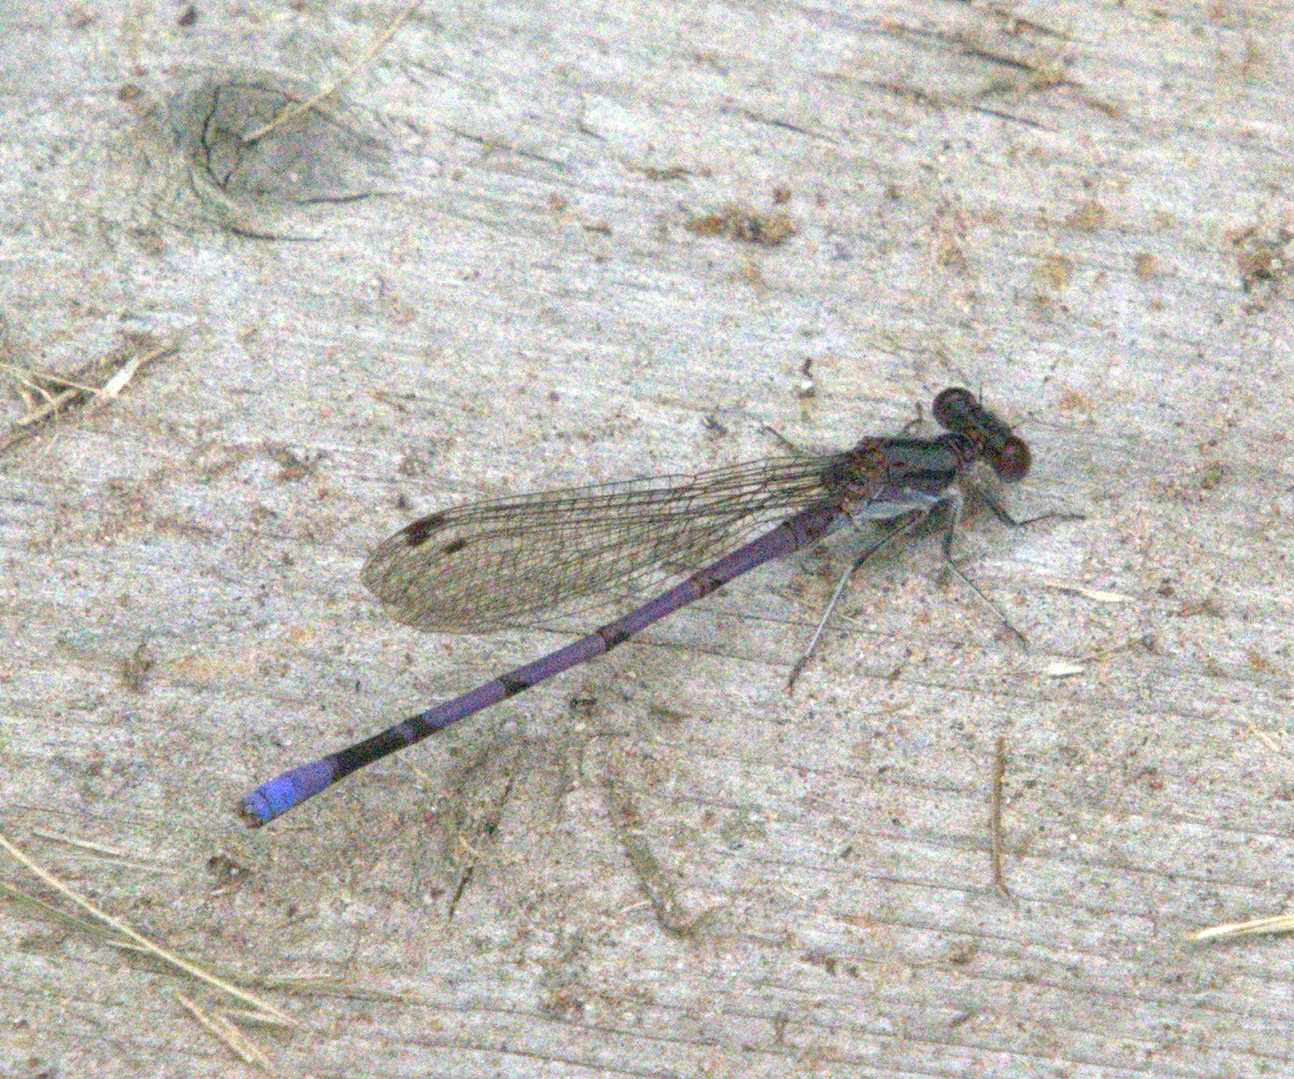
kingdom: Animalia
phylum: Arthropoda
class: Insecta
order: Odonata
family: Coenagrionidae
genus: Argia
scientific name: Argia fumipennis
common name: Variable dancer
